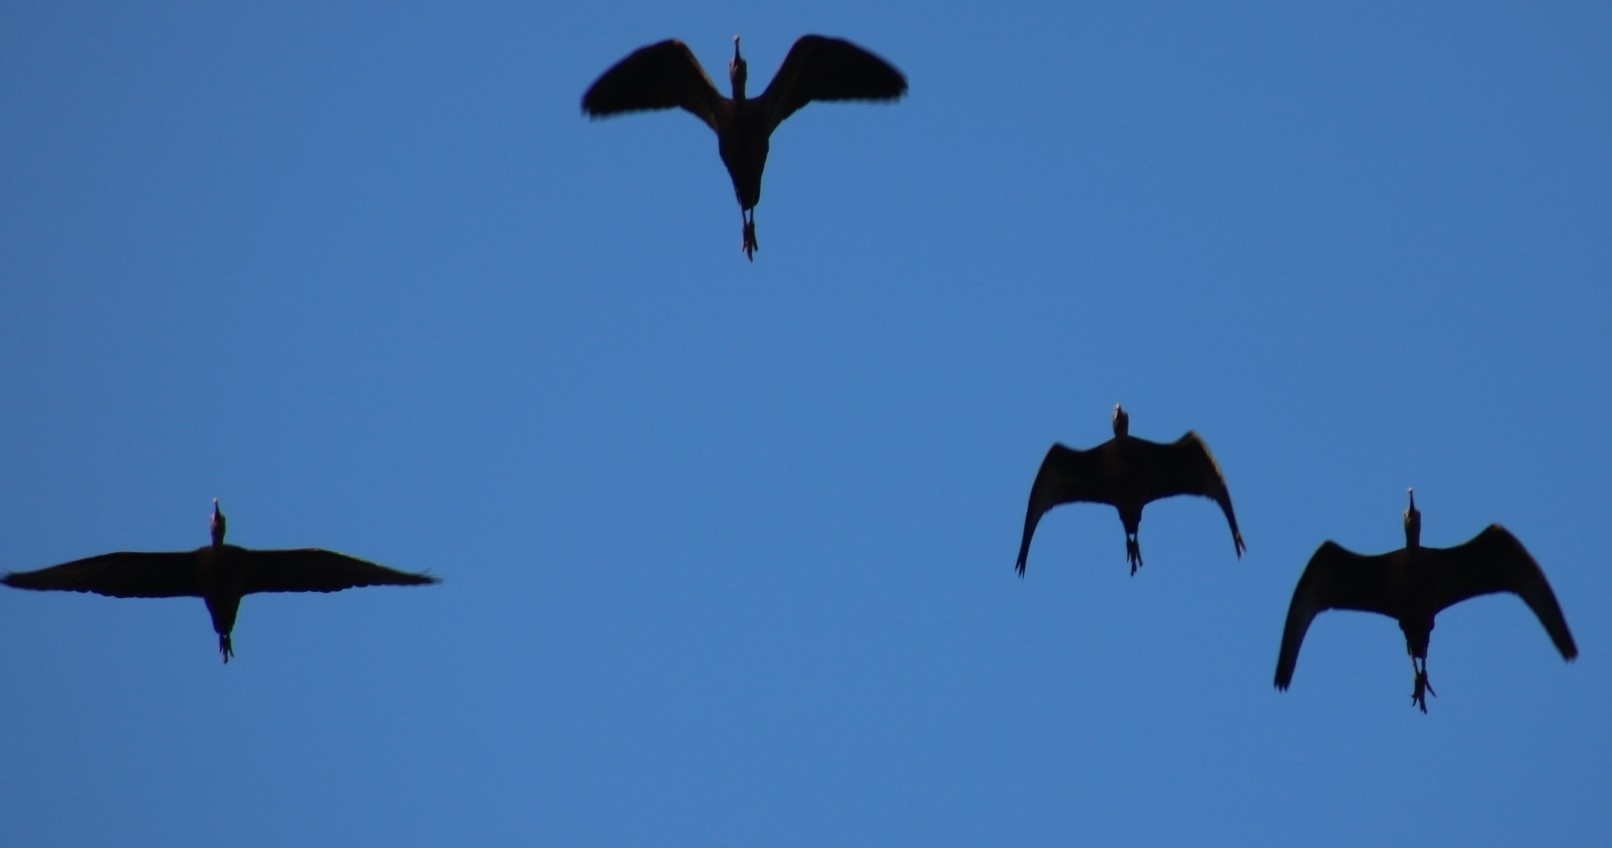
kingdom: Animalia
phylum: Chordata
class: Aves
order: Pelecaniformes
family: Threskiornithidae
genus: Plegadis
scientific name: Plegadis chihi
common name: White-faced ibis
